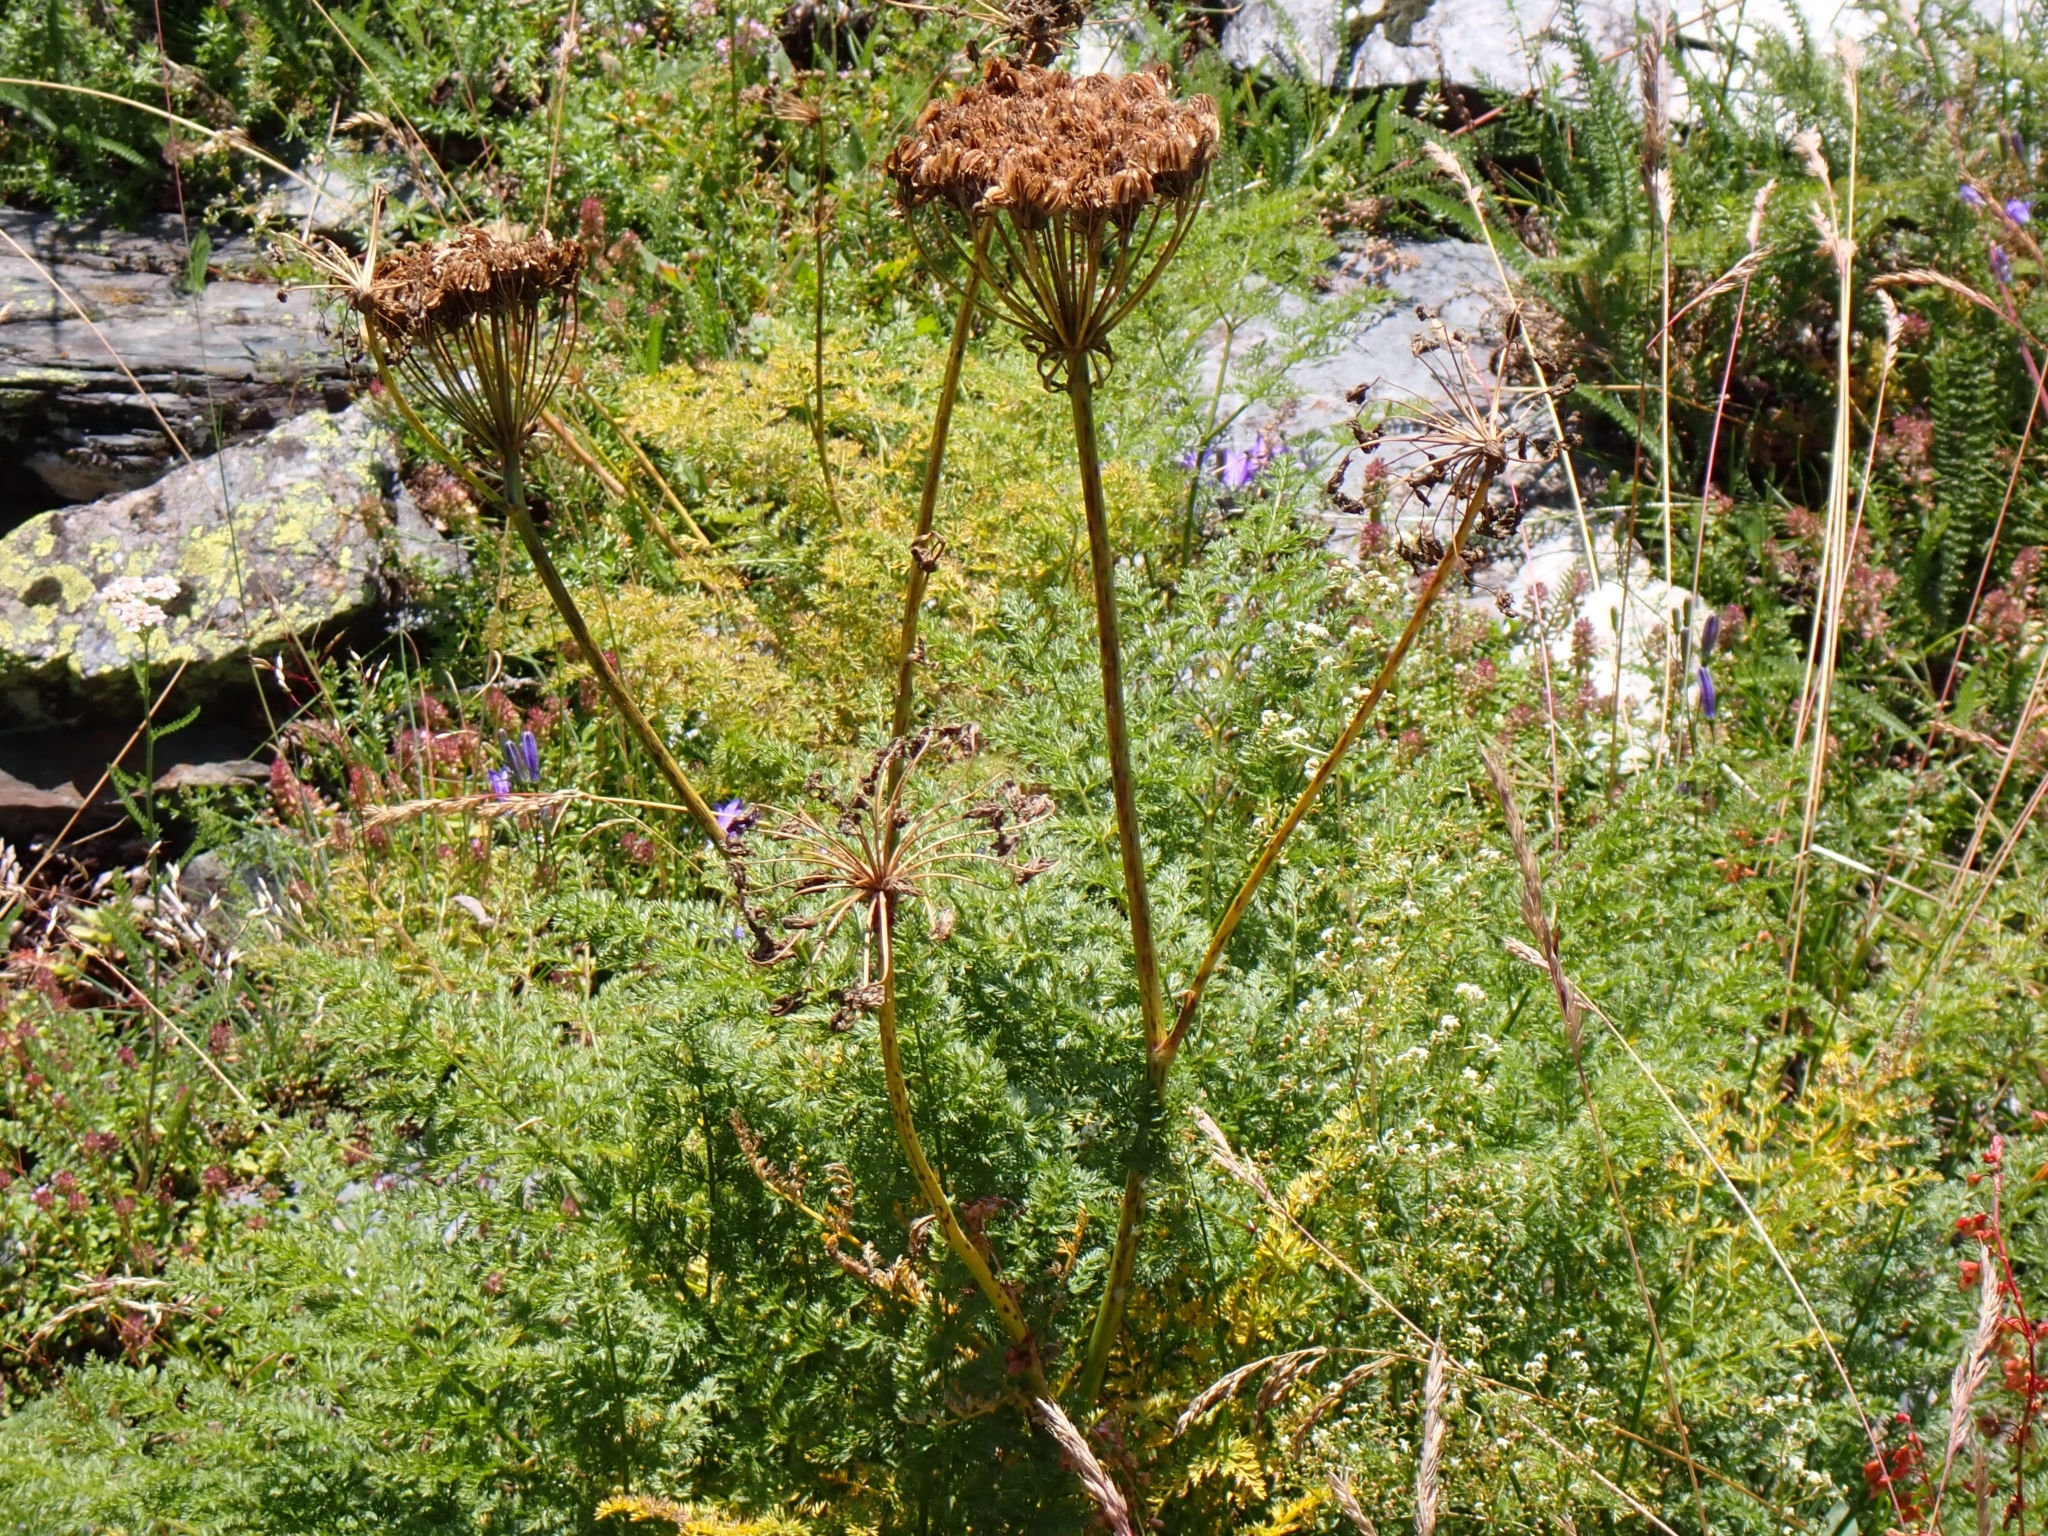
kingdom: Plantae
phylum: Tracheophyta
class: Magnoliopsida
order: Apiales
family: Apiaceae
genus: Laserpitium
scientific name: Laserpitium halleri
